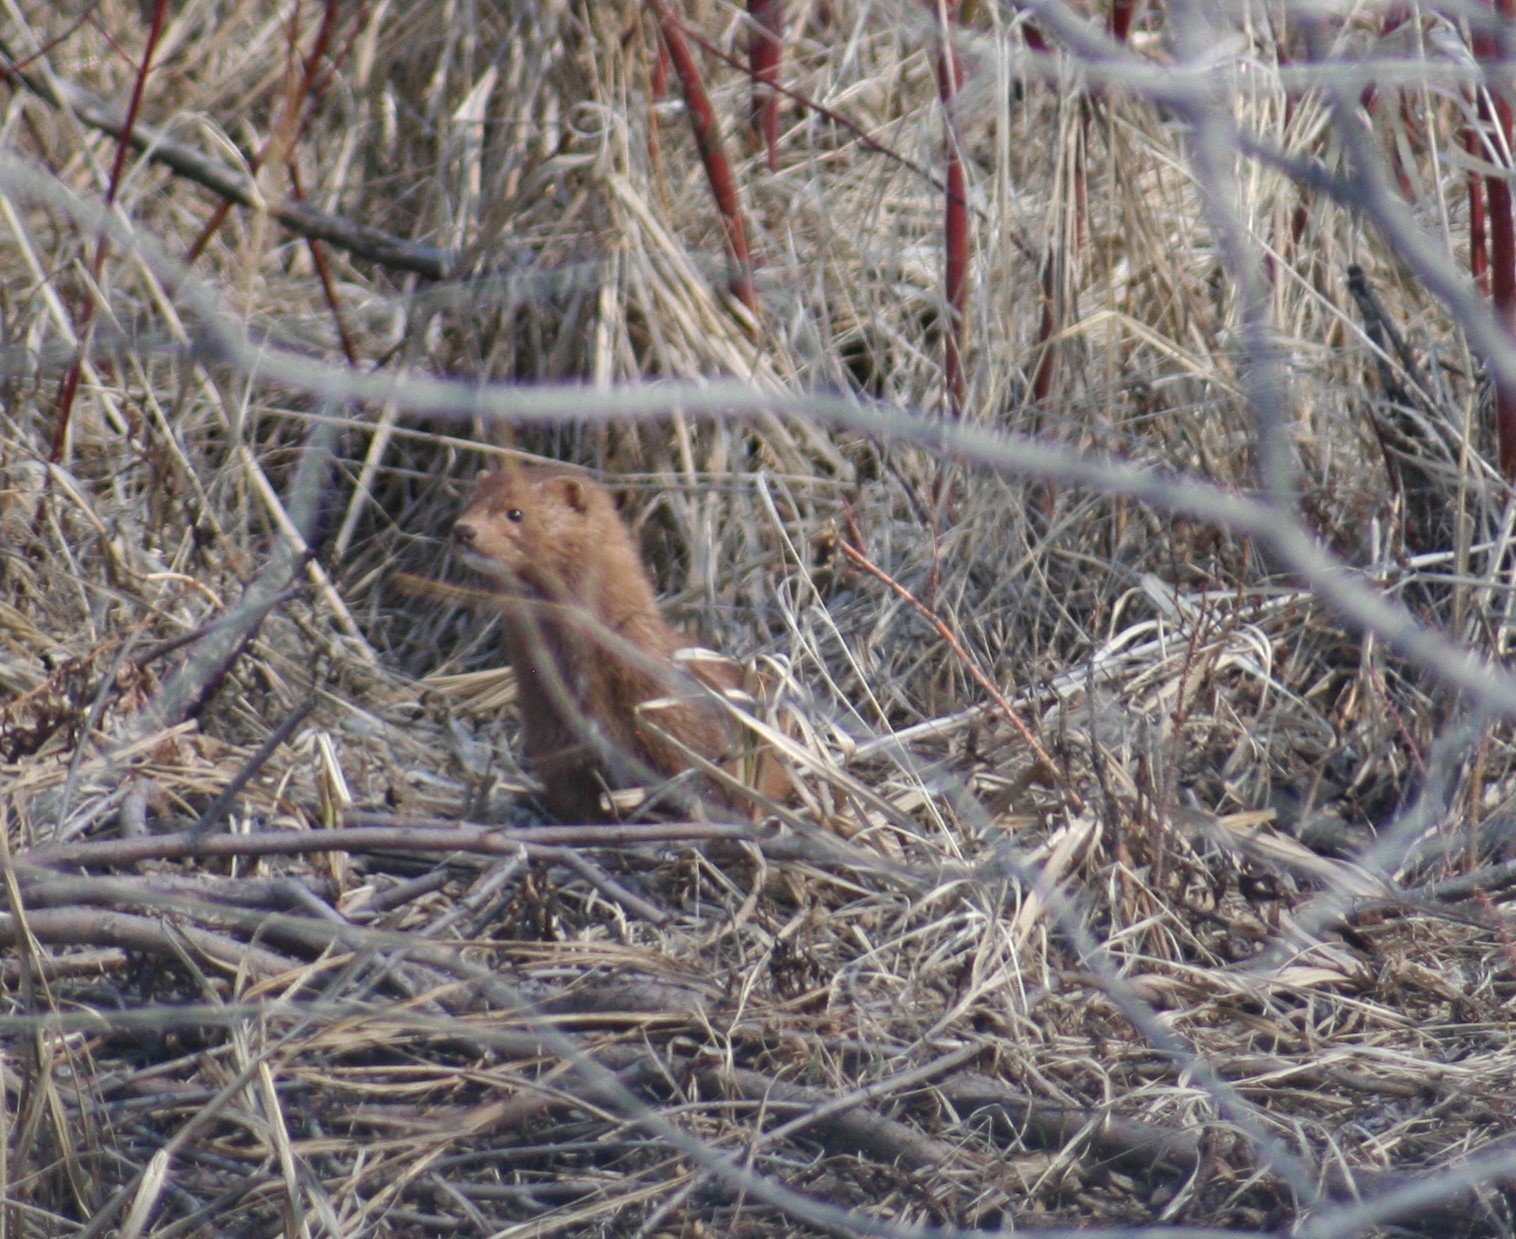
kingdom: Animalia
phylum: Chordata
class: Mammalia
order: Carnivora
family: Mustelidae
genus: Mustela
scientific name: Mustela
